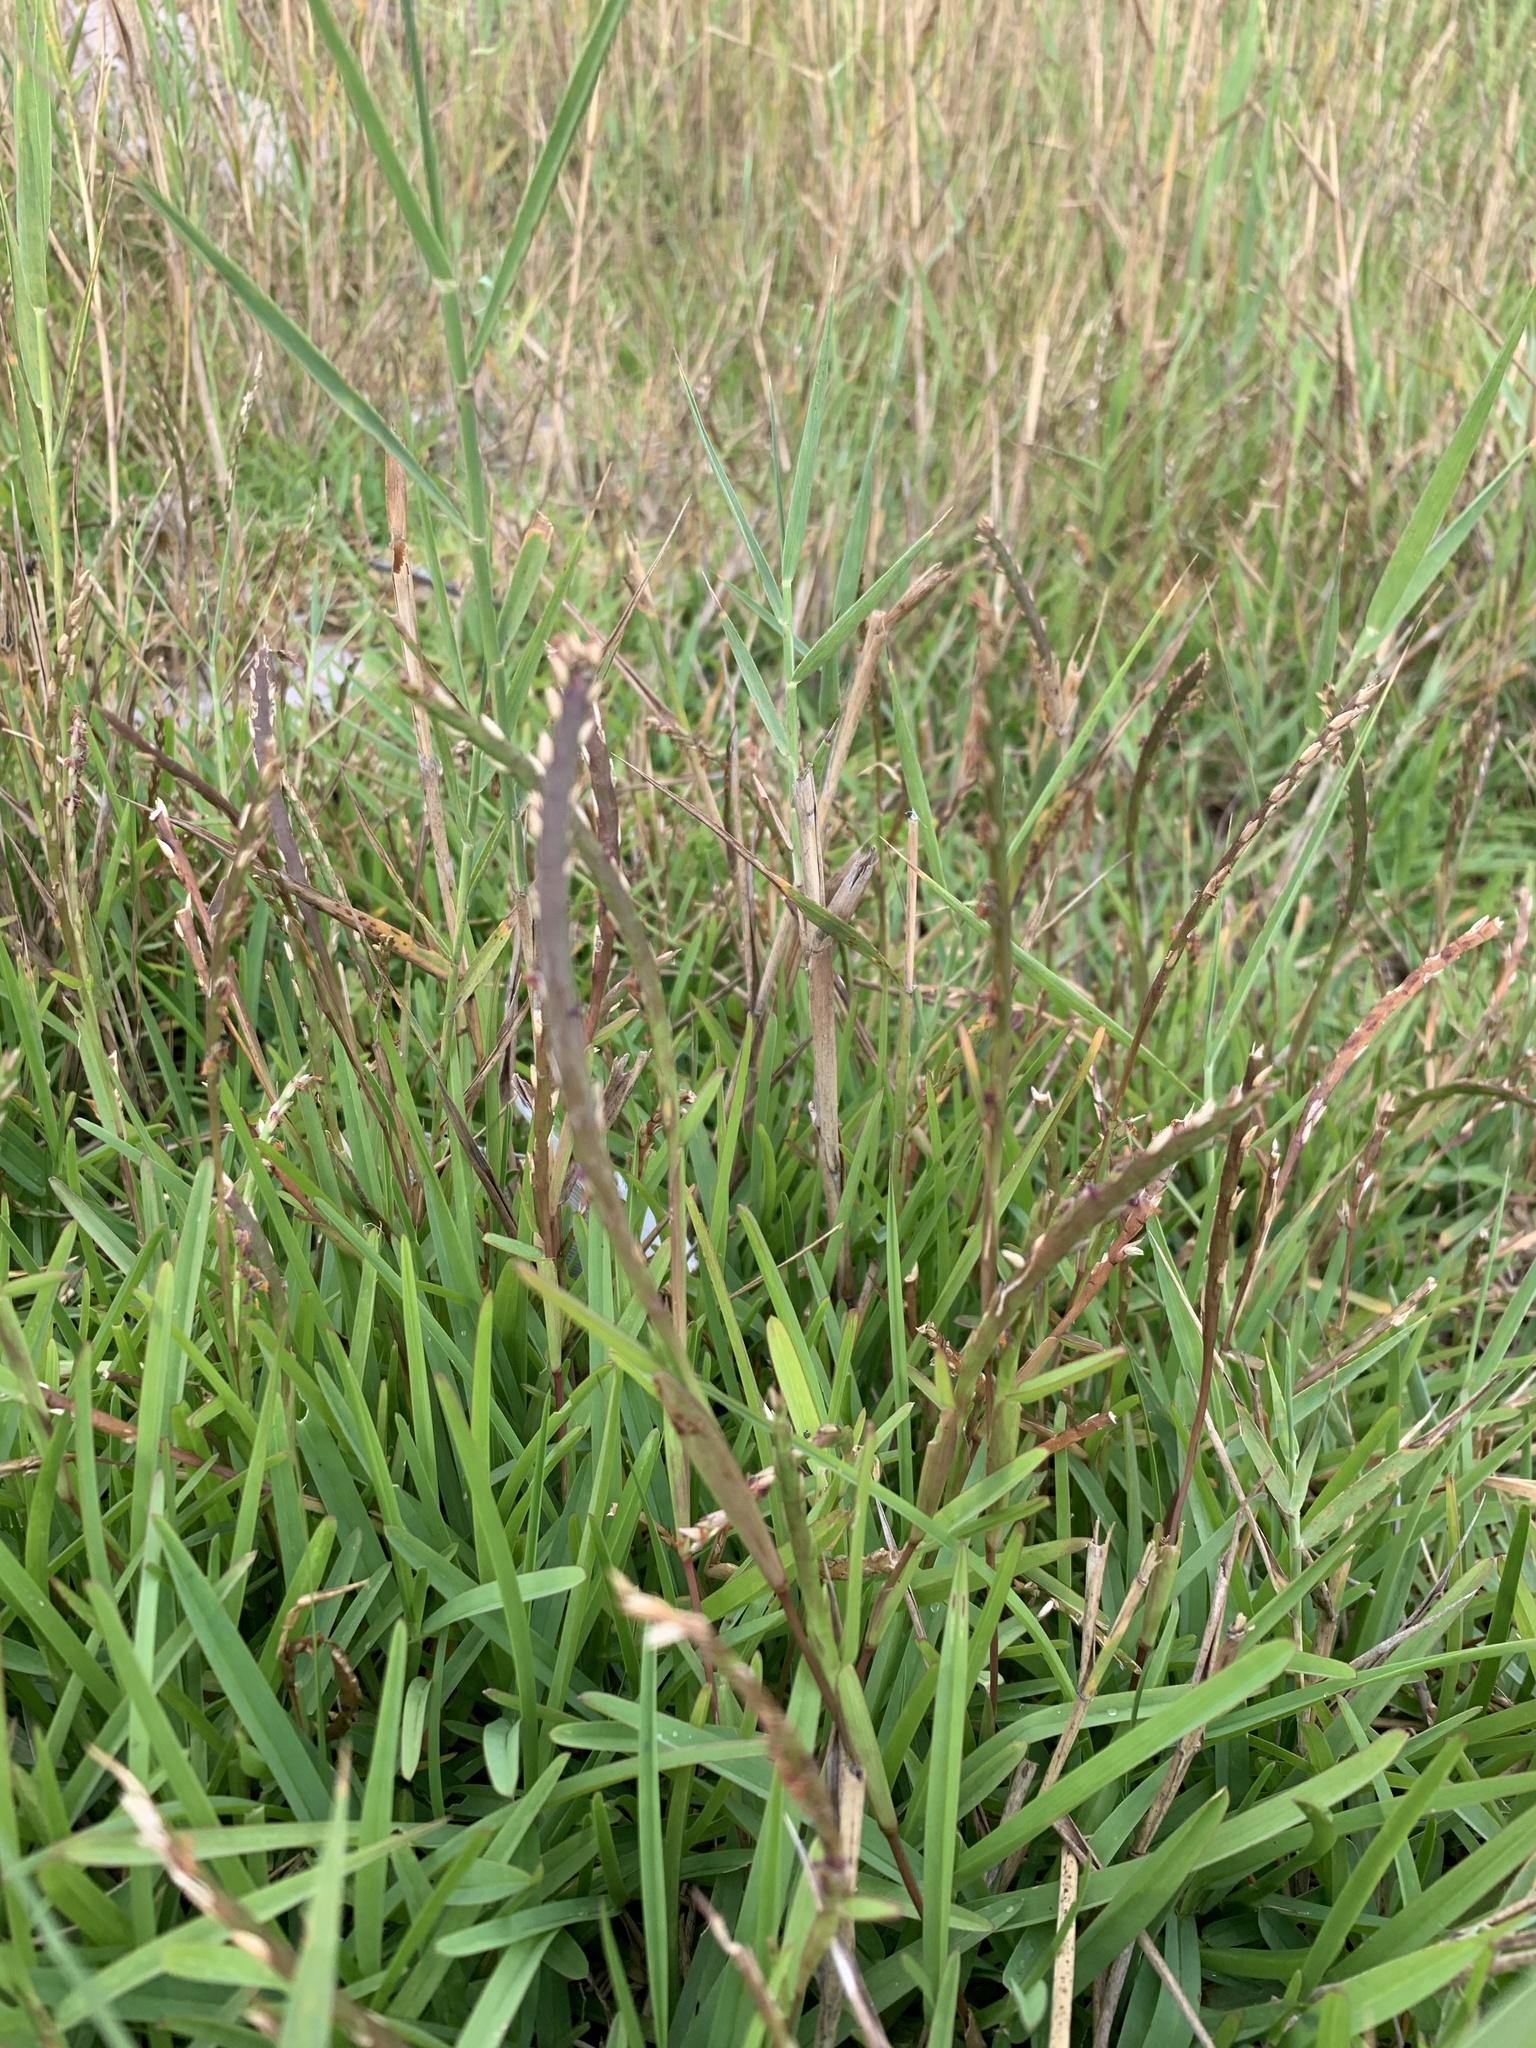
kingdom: Plantae
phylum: Tracheophyta
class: Liliopsida
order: Poales
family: Poaceae
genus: Stenotaphrum
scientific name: Stenotaphrum secundatum
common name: St. augustine grass
